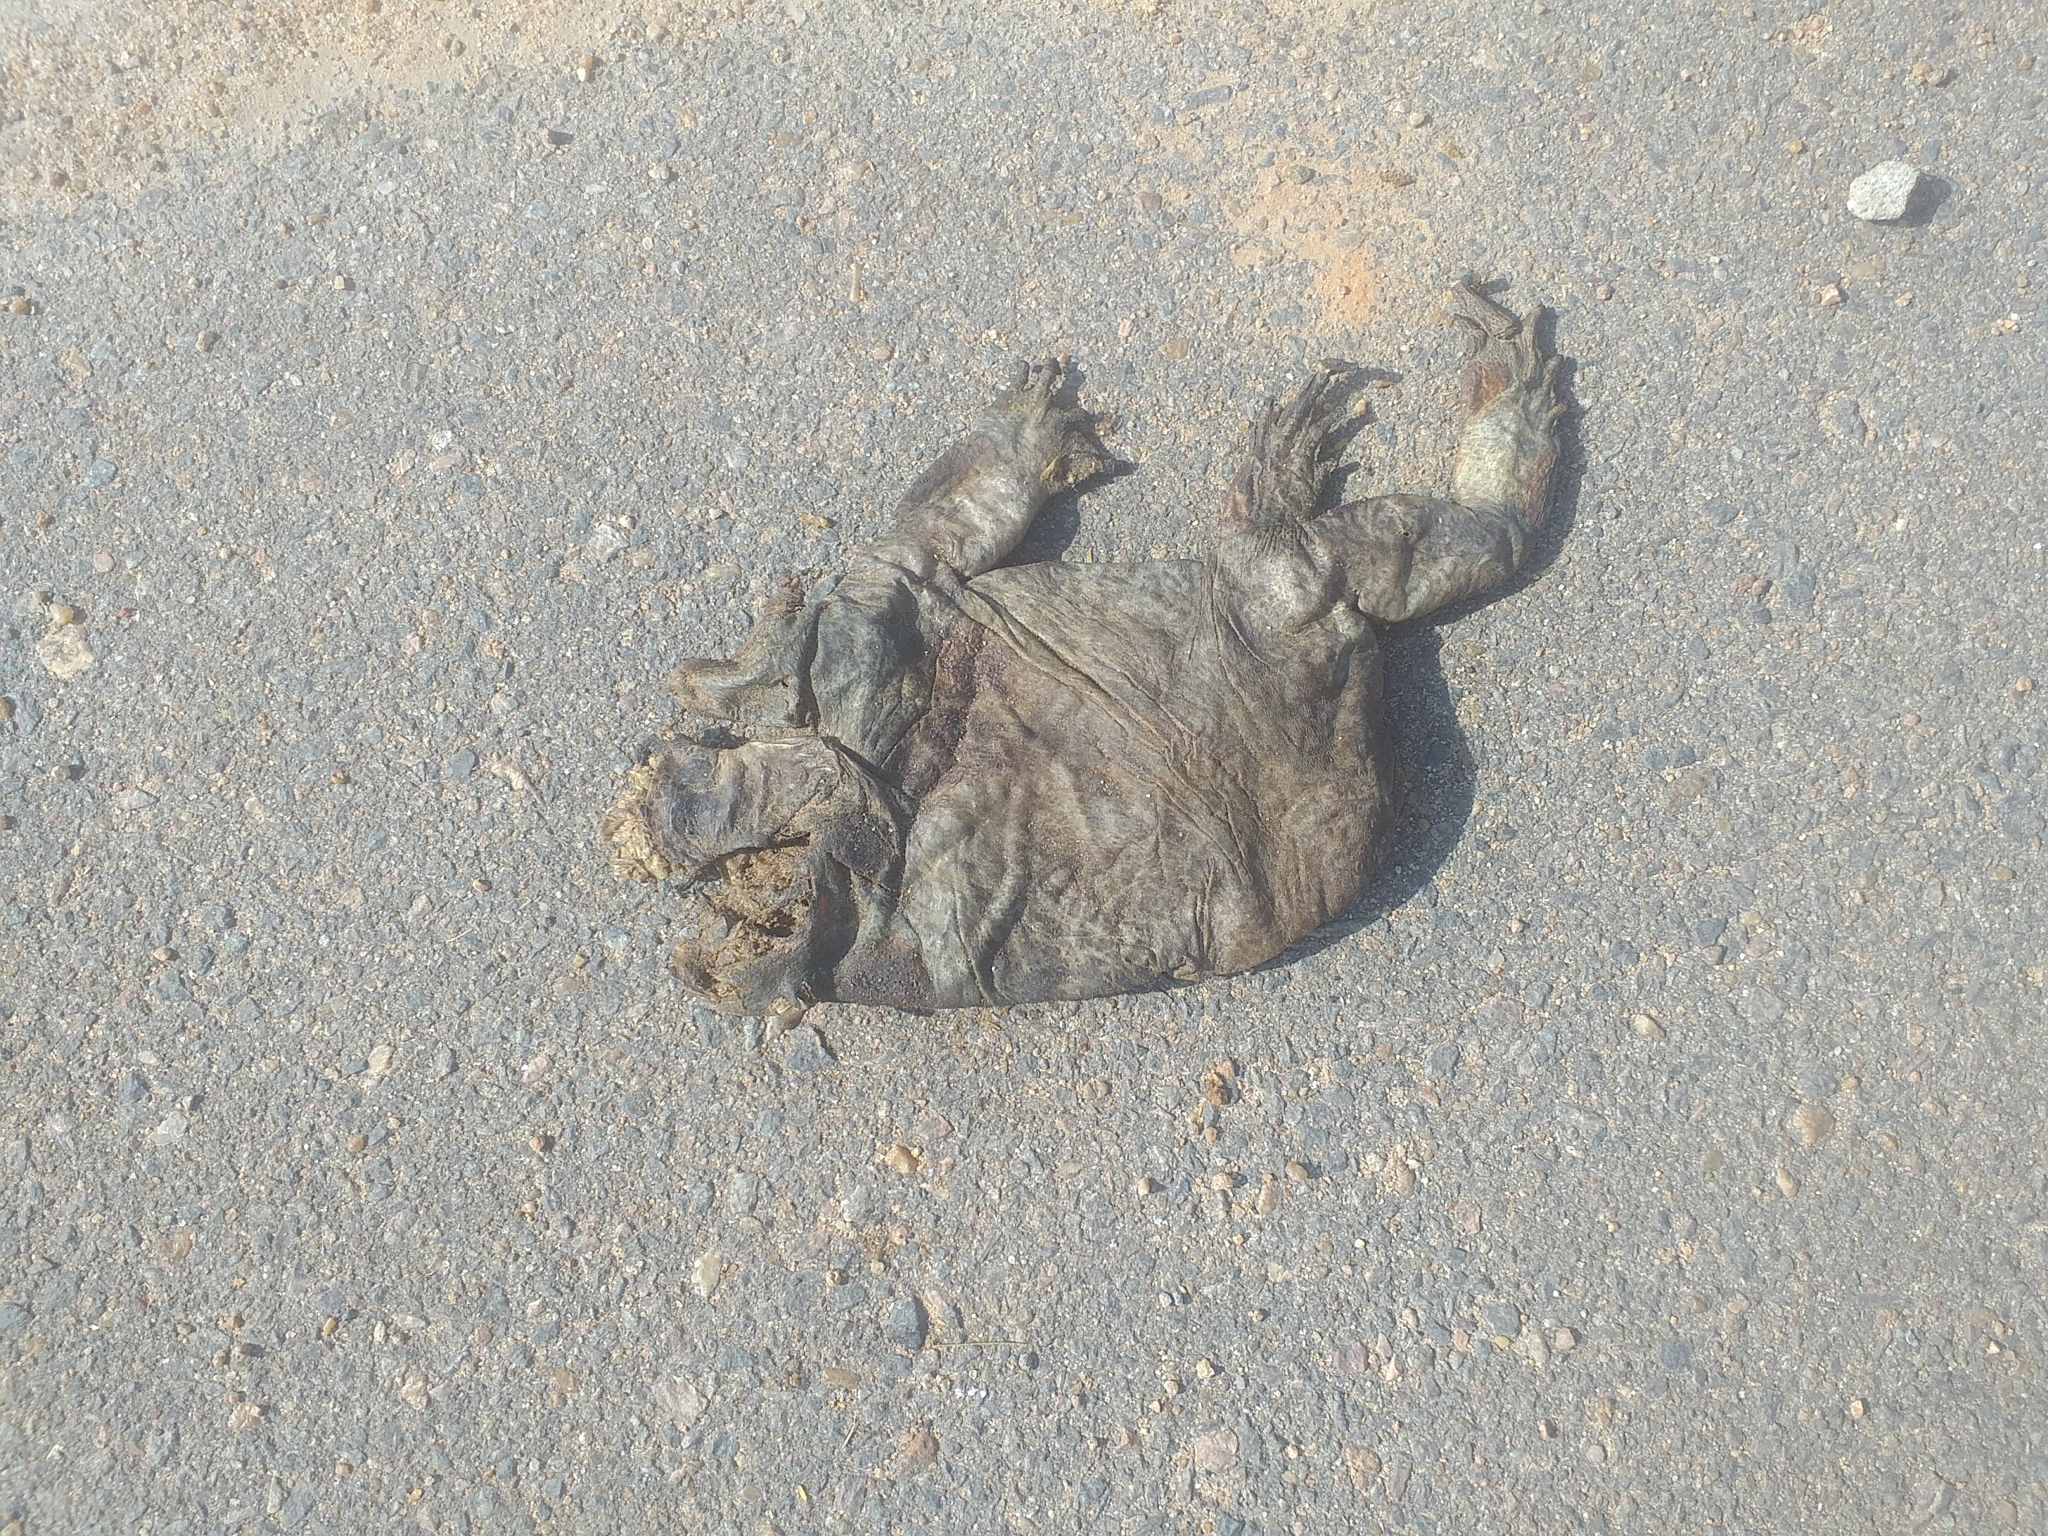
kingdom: Animalia
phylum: Chordata
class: Amphibia
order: Anura
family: Bufonidae
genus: Rhinella
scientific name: Rhinella diptycha
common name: Cope's toad
